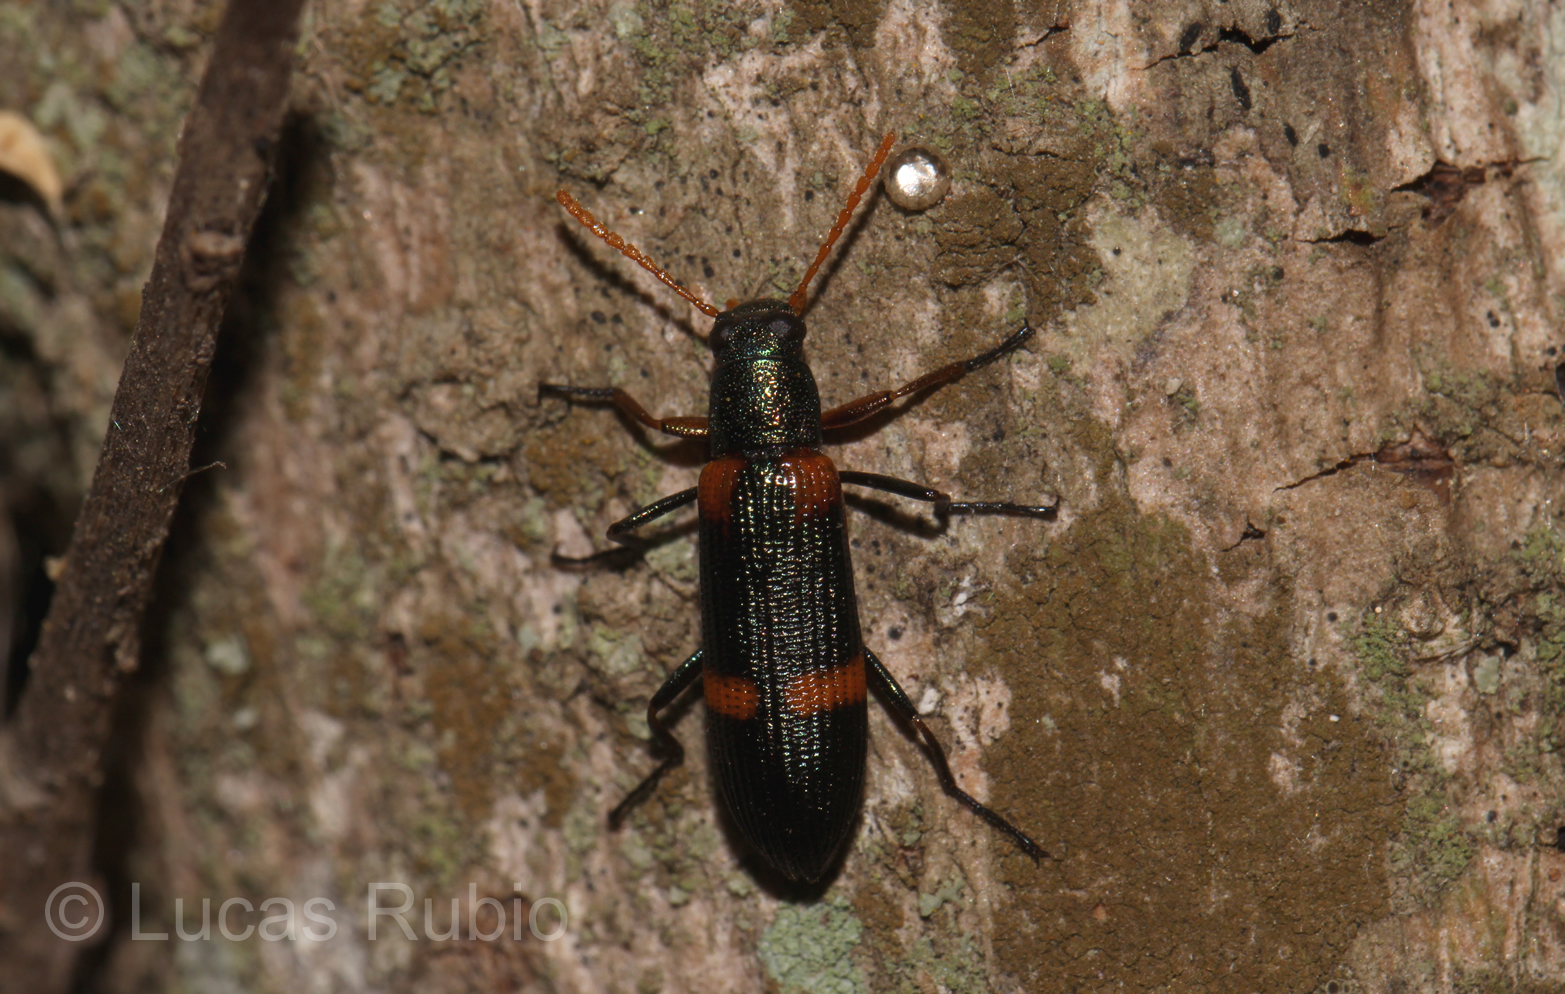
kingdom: Animalia
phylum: Arthropoda
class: Insecta
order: Coleoptera
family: Tenebrionidae
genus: Strongylium
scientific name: Strongylium
